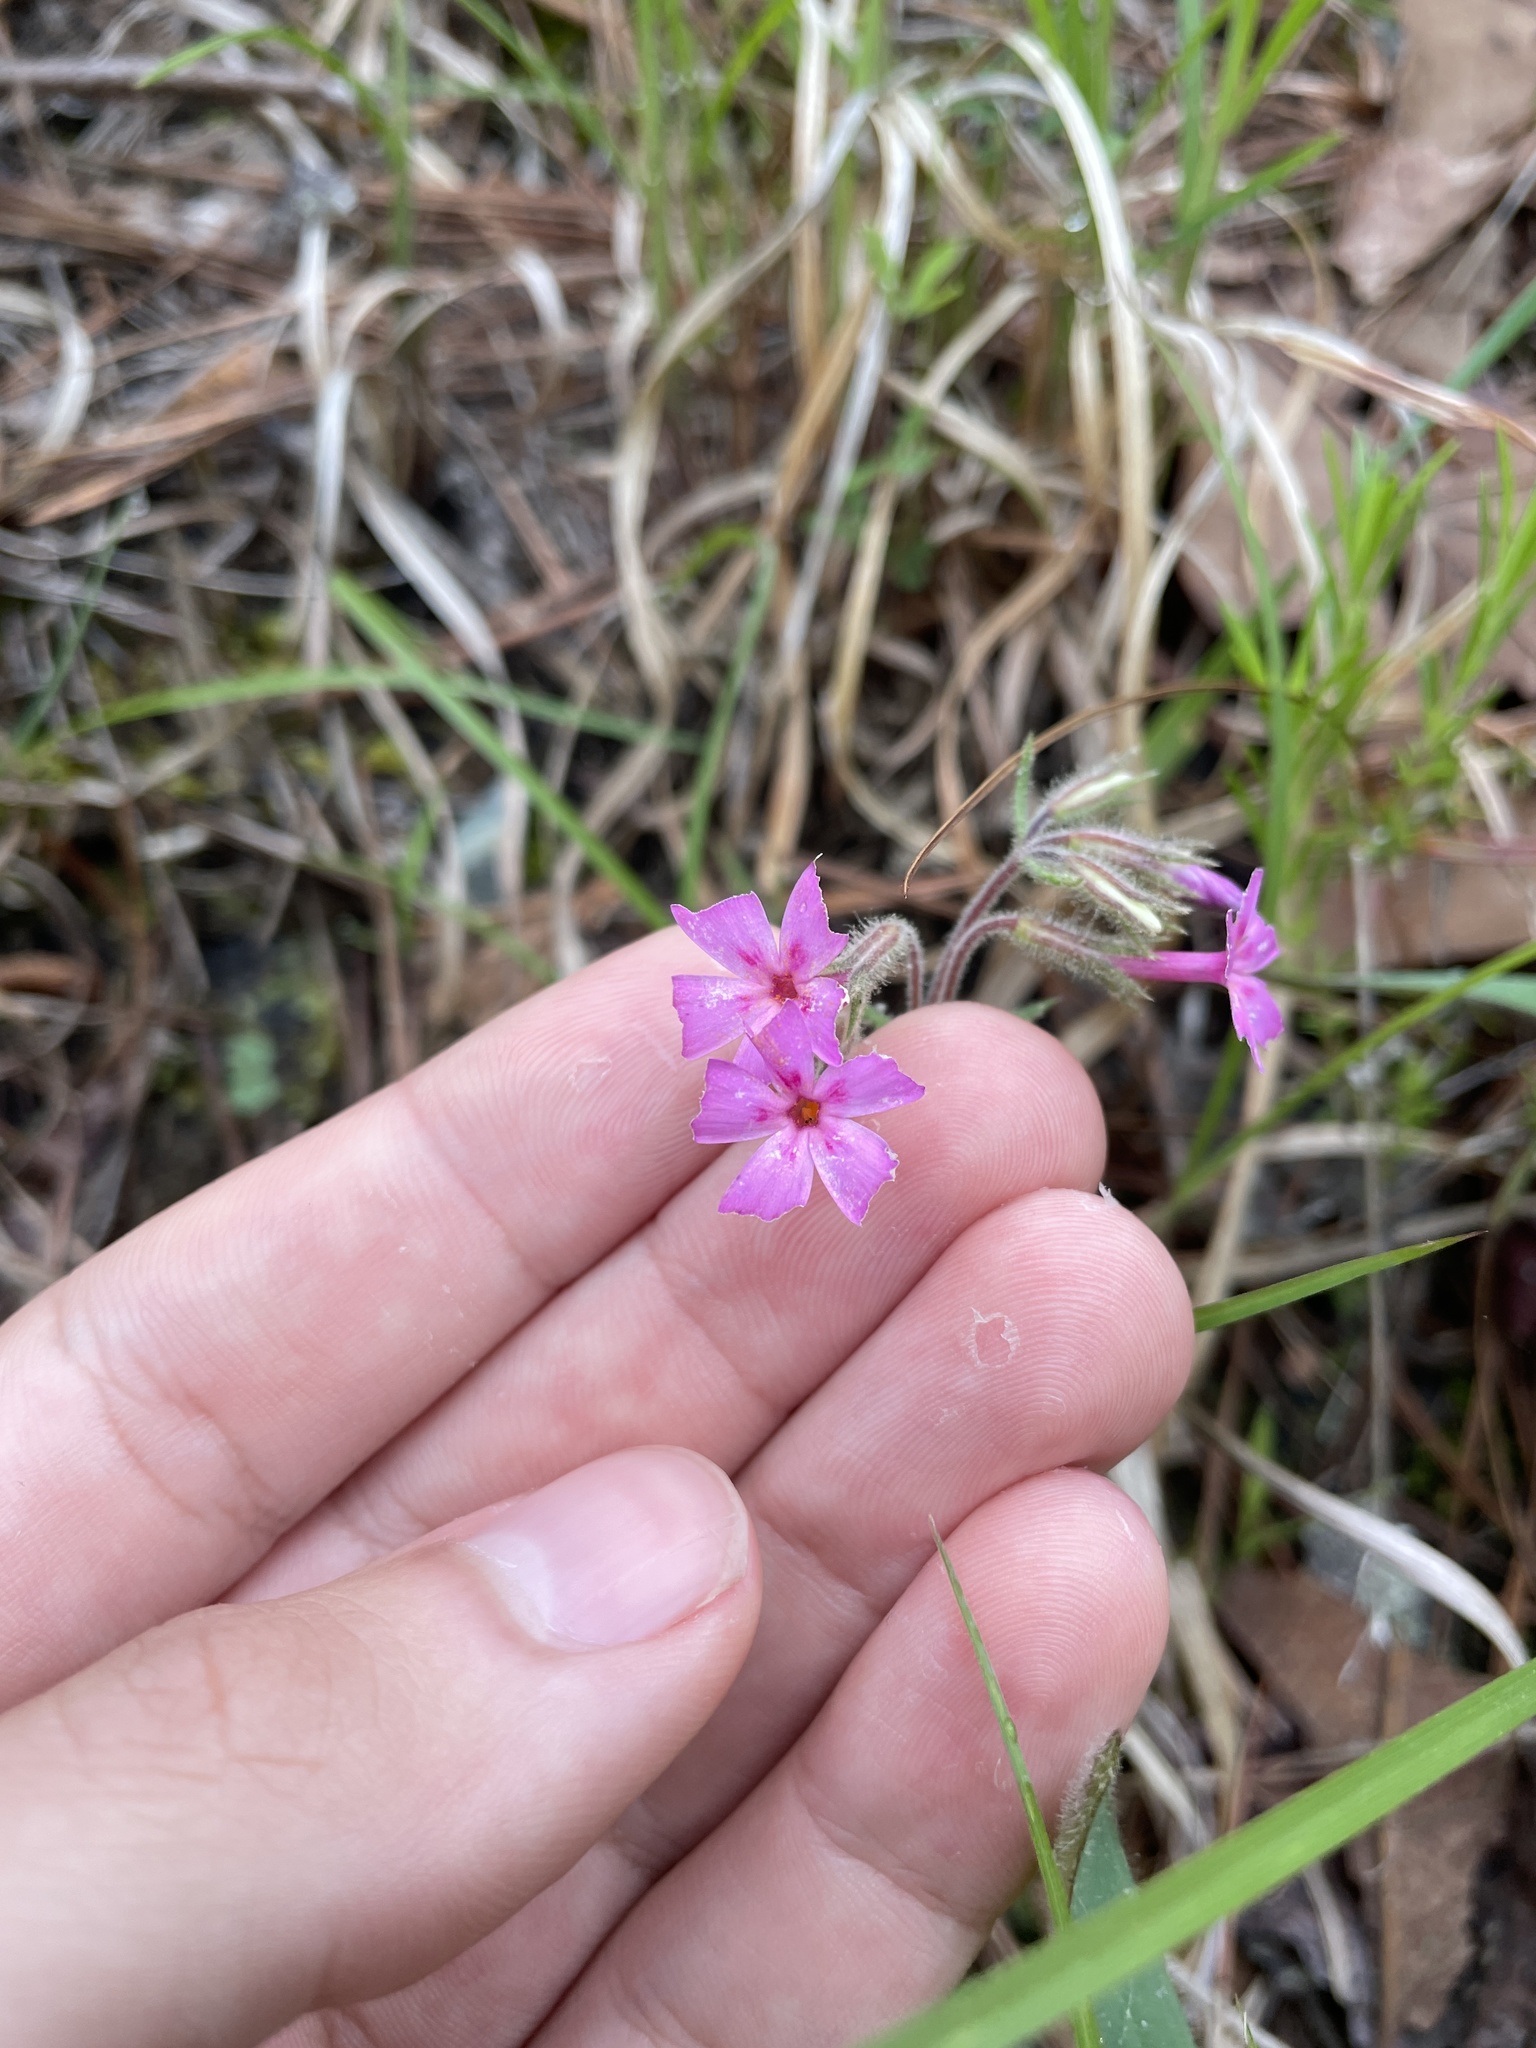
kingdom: Plantae
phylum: Tracheophyta
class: Magnoliopsida
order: Ericales
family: Polemoniaceae
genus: Phlox
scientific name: Phlox nivalis
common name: Trailing phlox
